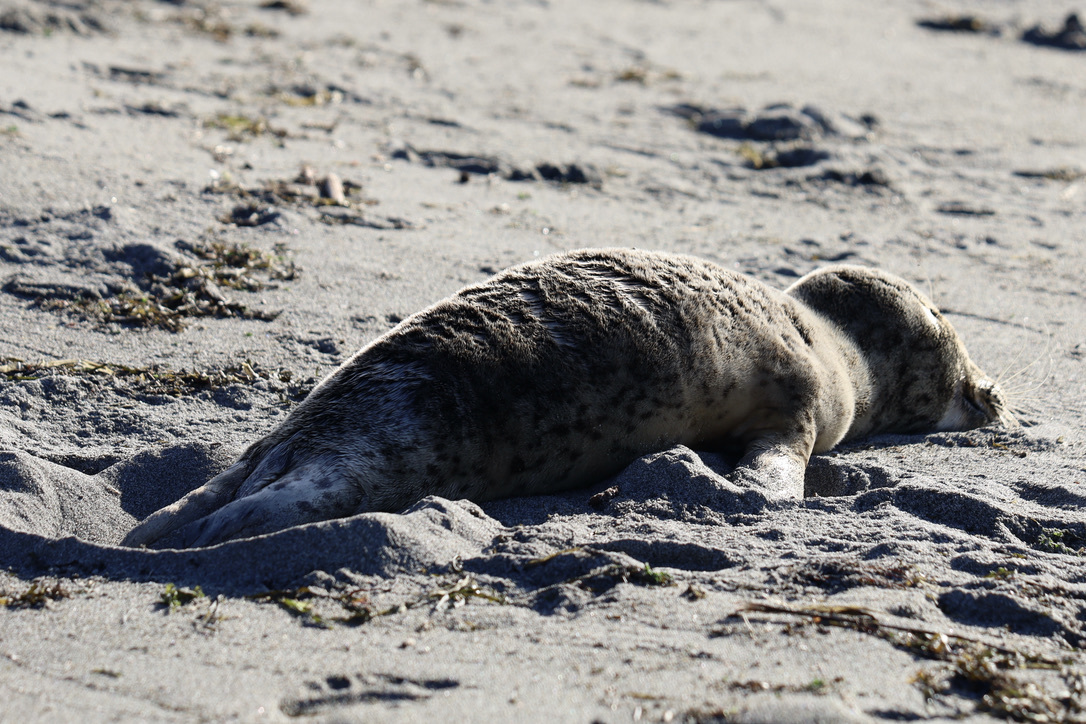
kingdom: Animalia
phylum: Chordata
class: Mammalia
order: Carnivora
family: Phocidae
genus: Phoca
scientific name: Phoca vitulina
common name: Harbor seal
